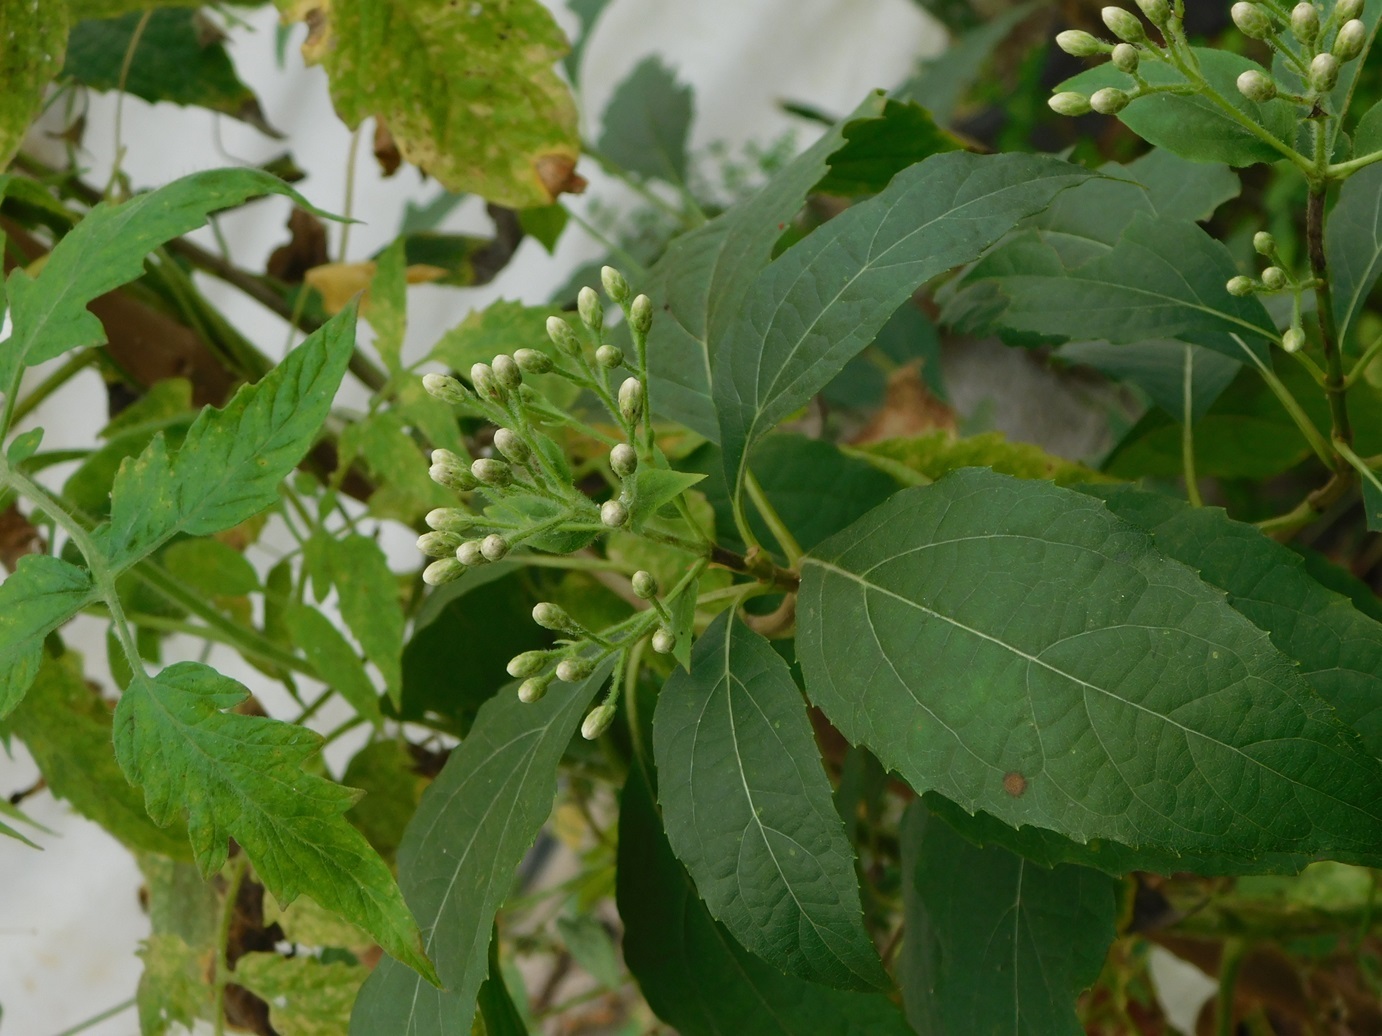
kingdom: Plantae
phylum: Tracheophyta
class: Magnoliopsida
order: Asterales
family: Asteraceae
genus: Chromolaena
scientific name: Chromolaena glaberrima
